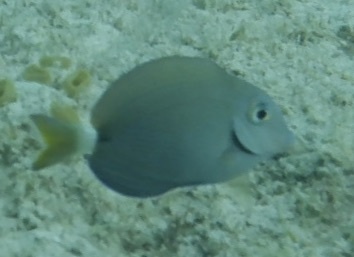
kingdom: Animalia
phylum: Chordata
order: Perciformes
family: Acanthuridae
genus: Acanthurus
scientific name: Acanthurus bahianus
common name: Ocean surgeon
